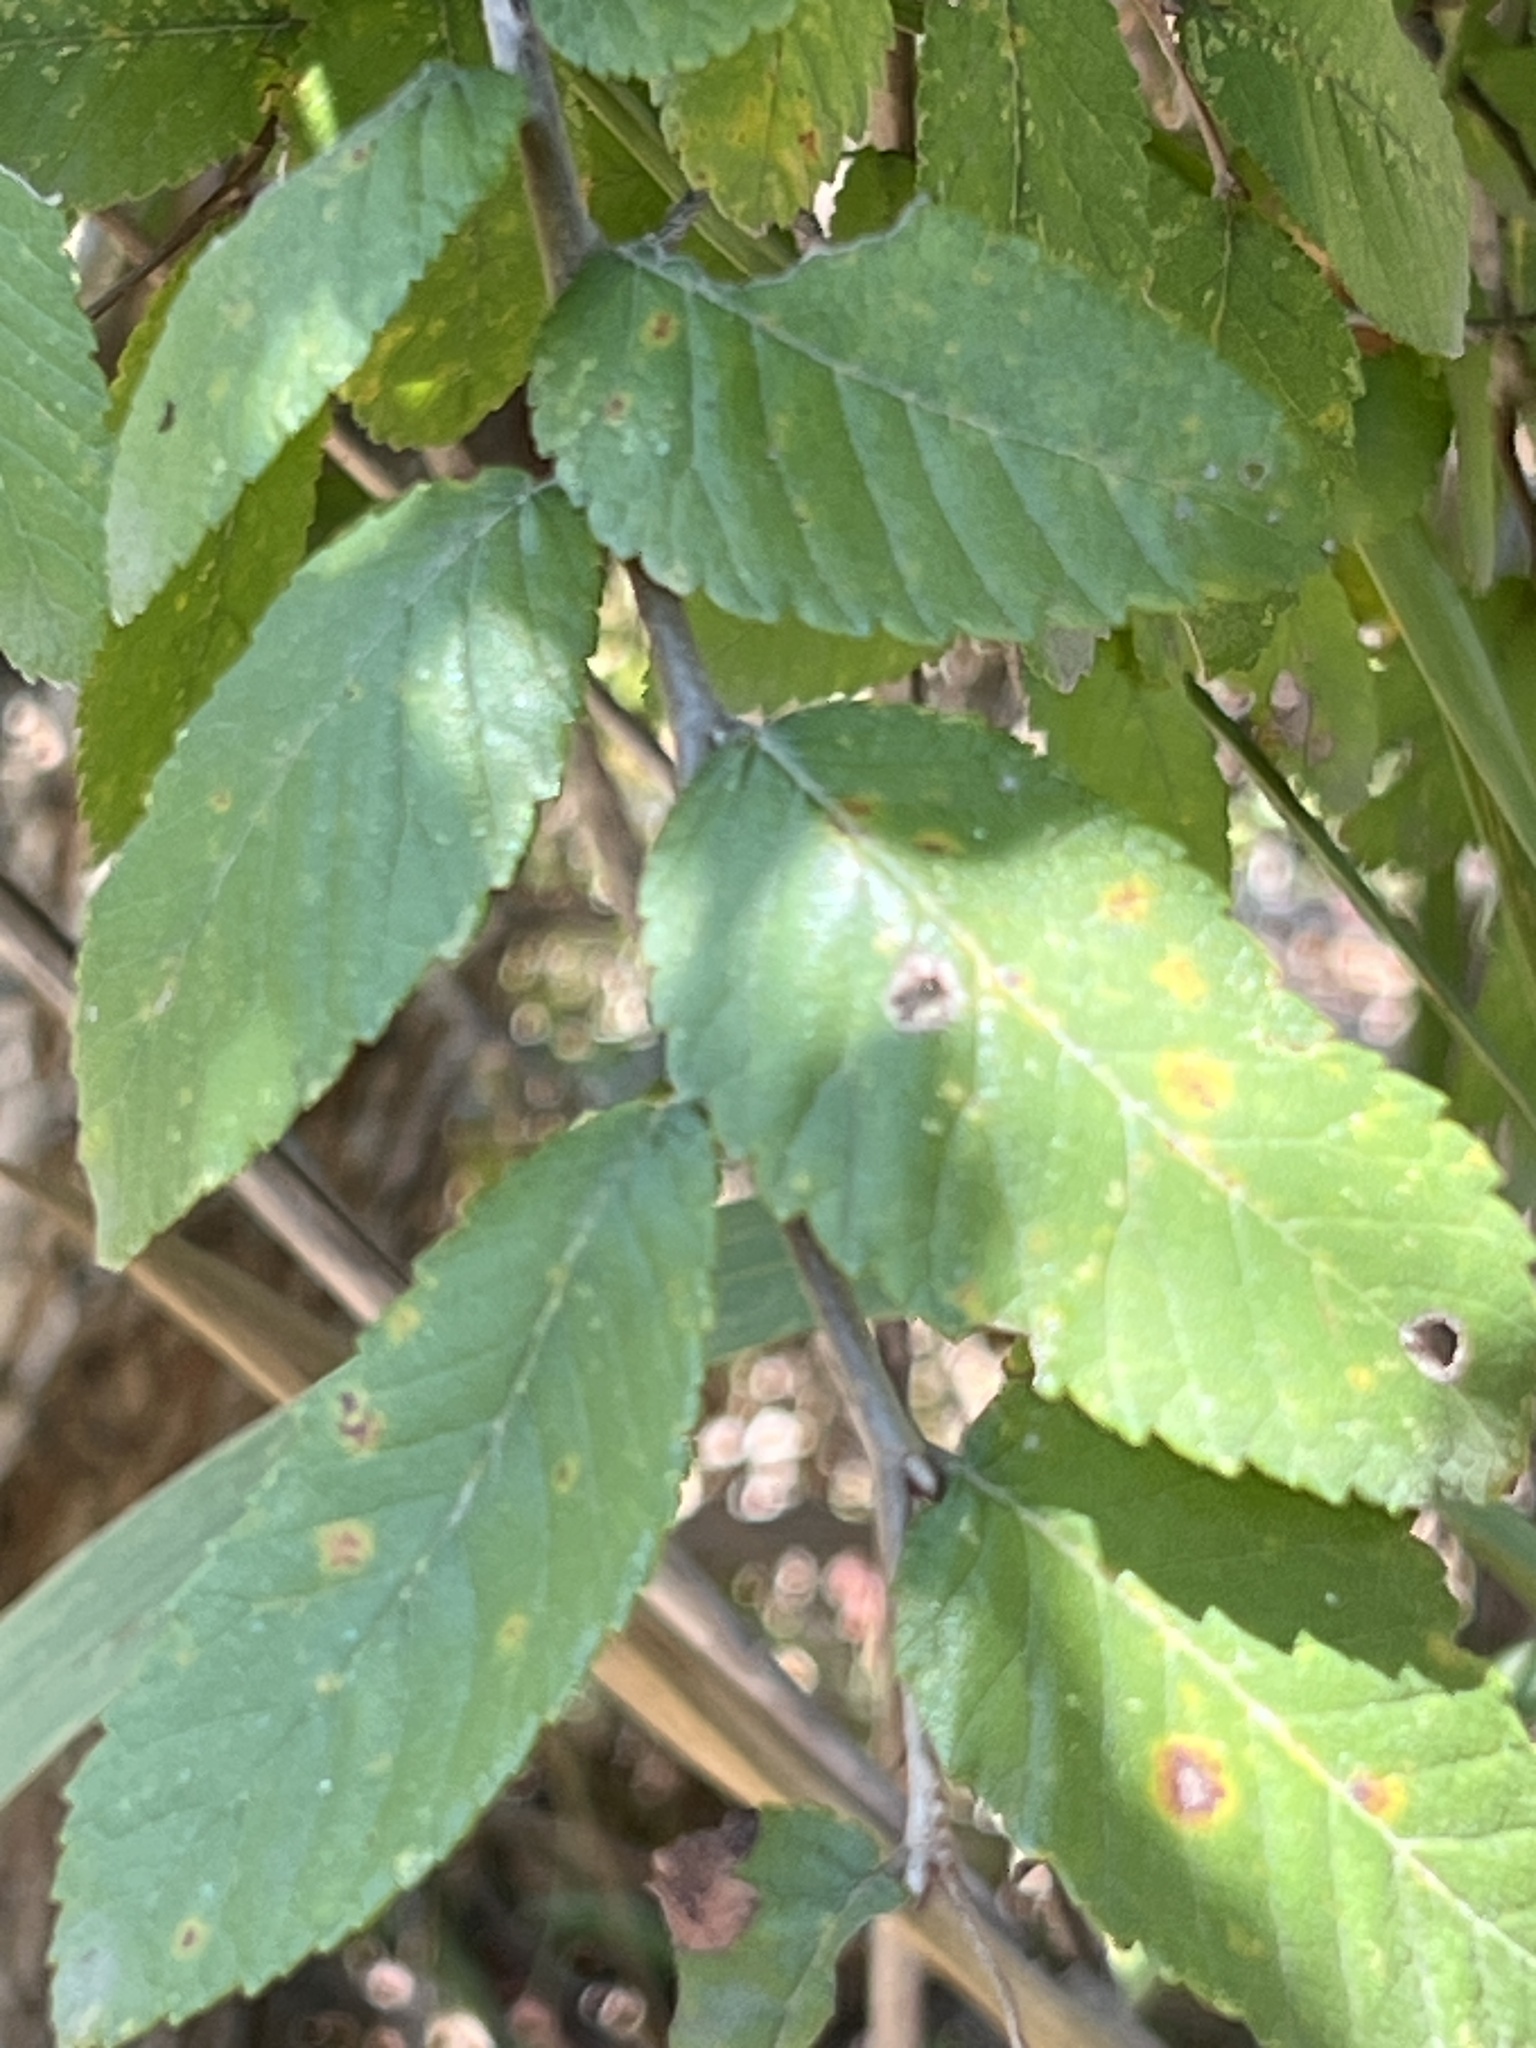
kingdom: Plantae
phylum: Tracheophyta
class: Magnoliopsida
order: Rosales
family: Ulmaceae
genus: Ulmus
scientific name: Ulmus crassifolia
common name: Basket elm
